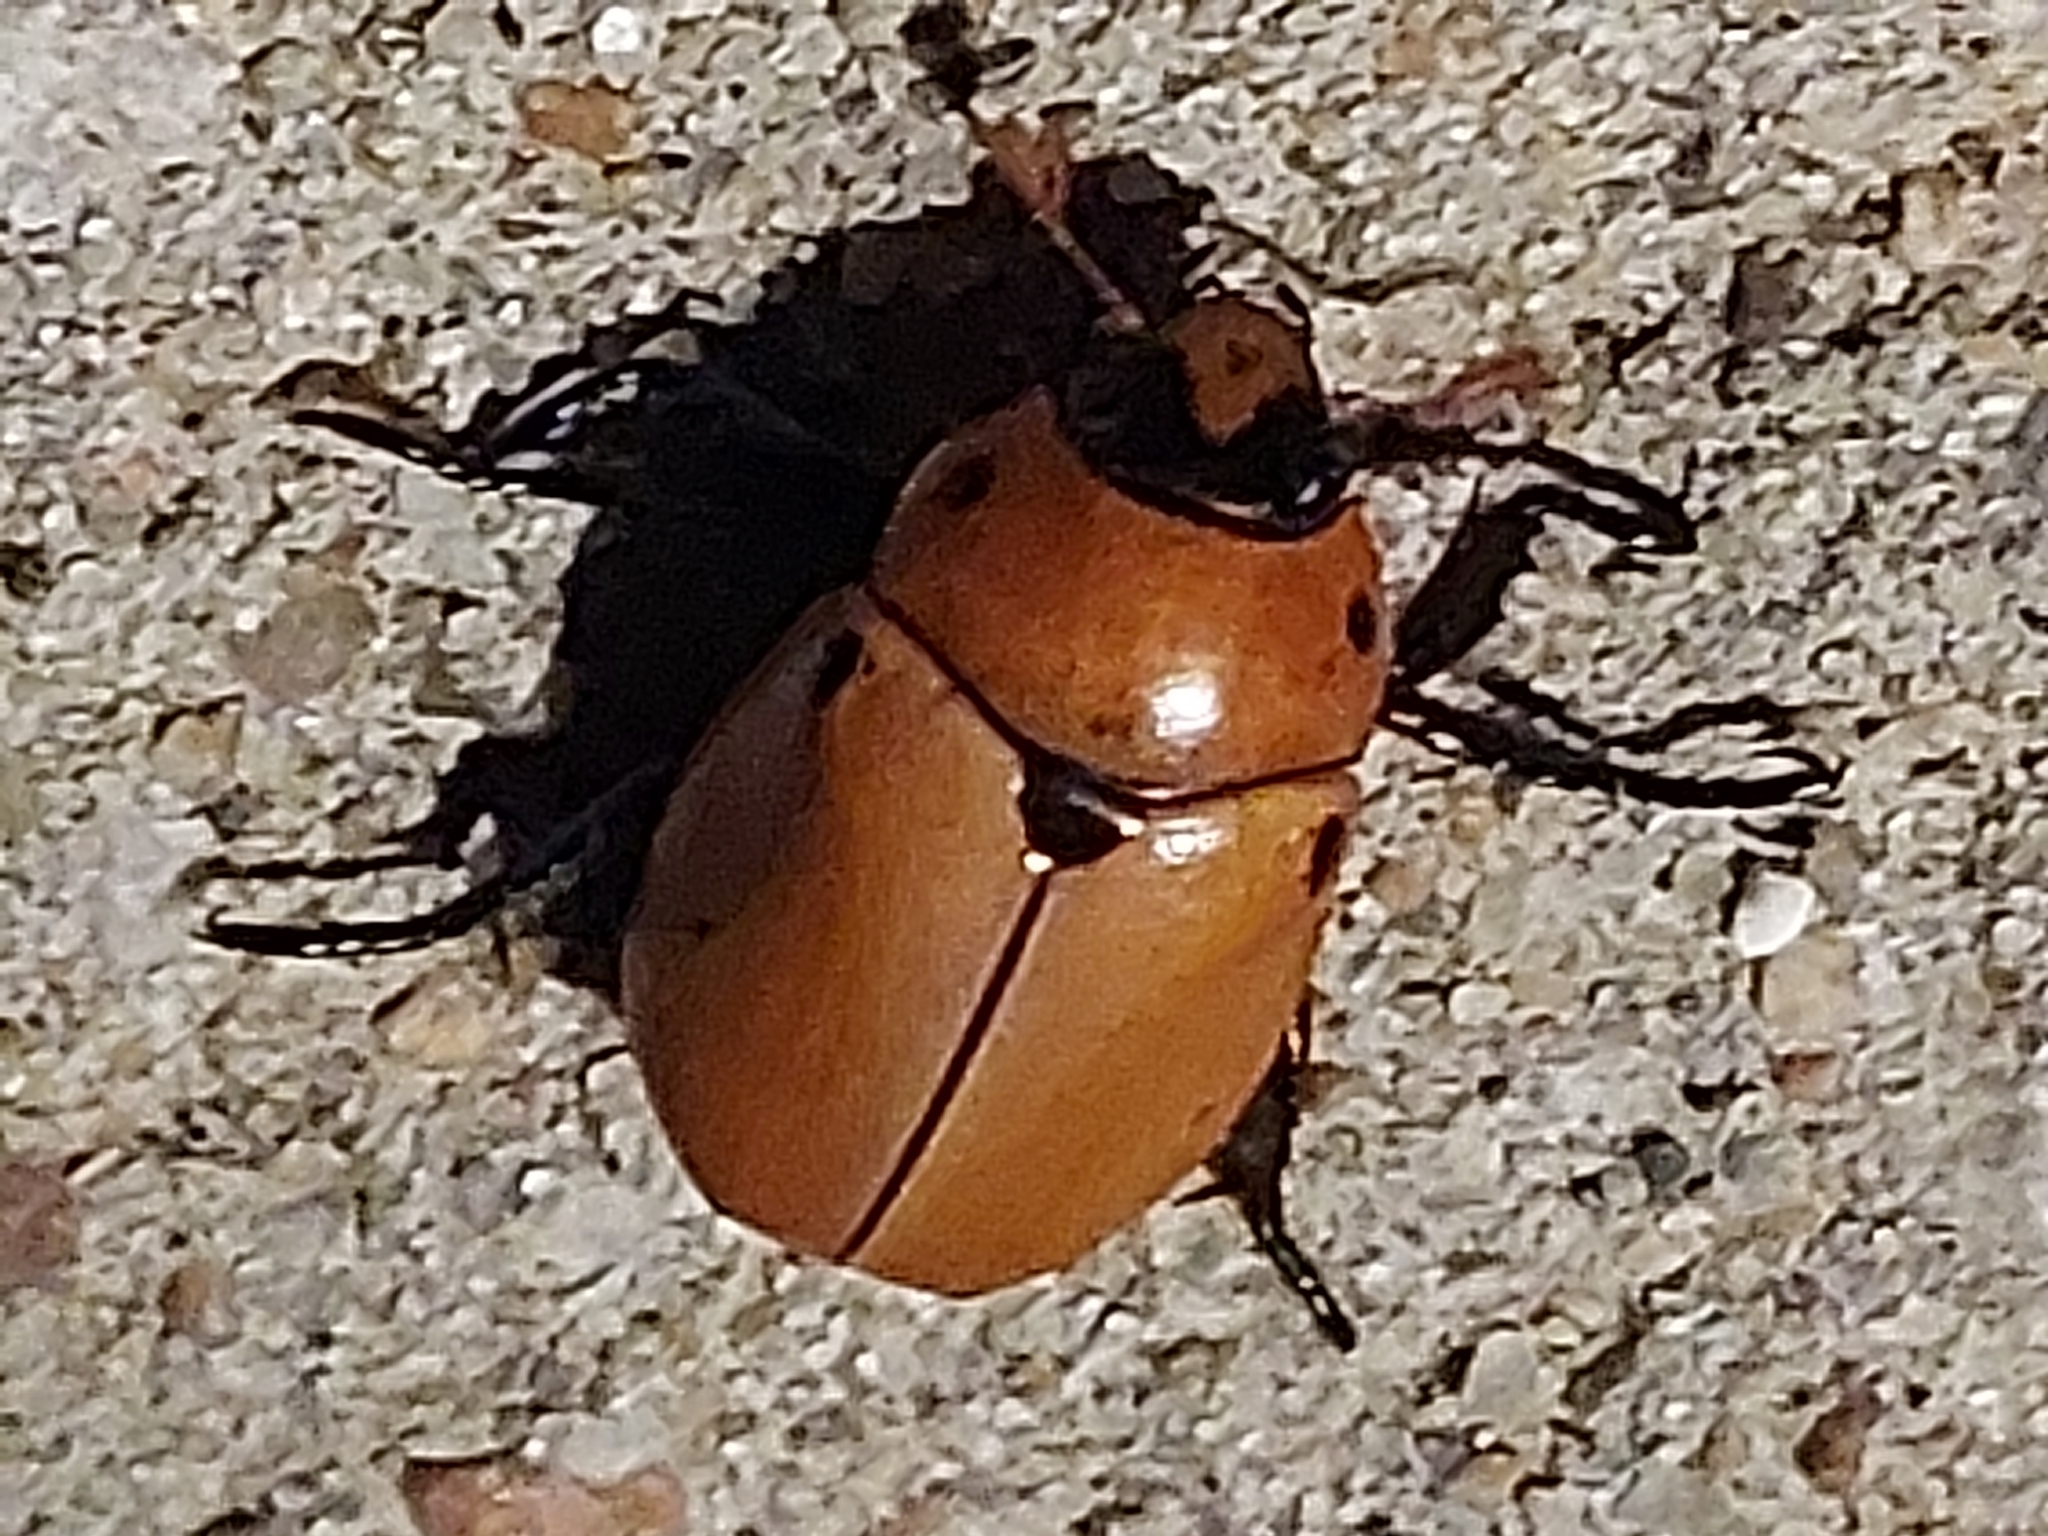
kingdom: Animalia
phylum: Arthropoda
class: Insecta
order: Coleoptera
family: Scarabaeidae
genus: Pelidnota
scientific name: Pelidnota punctata
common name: Grapevine beetle
